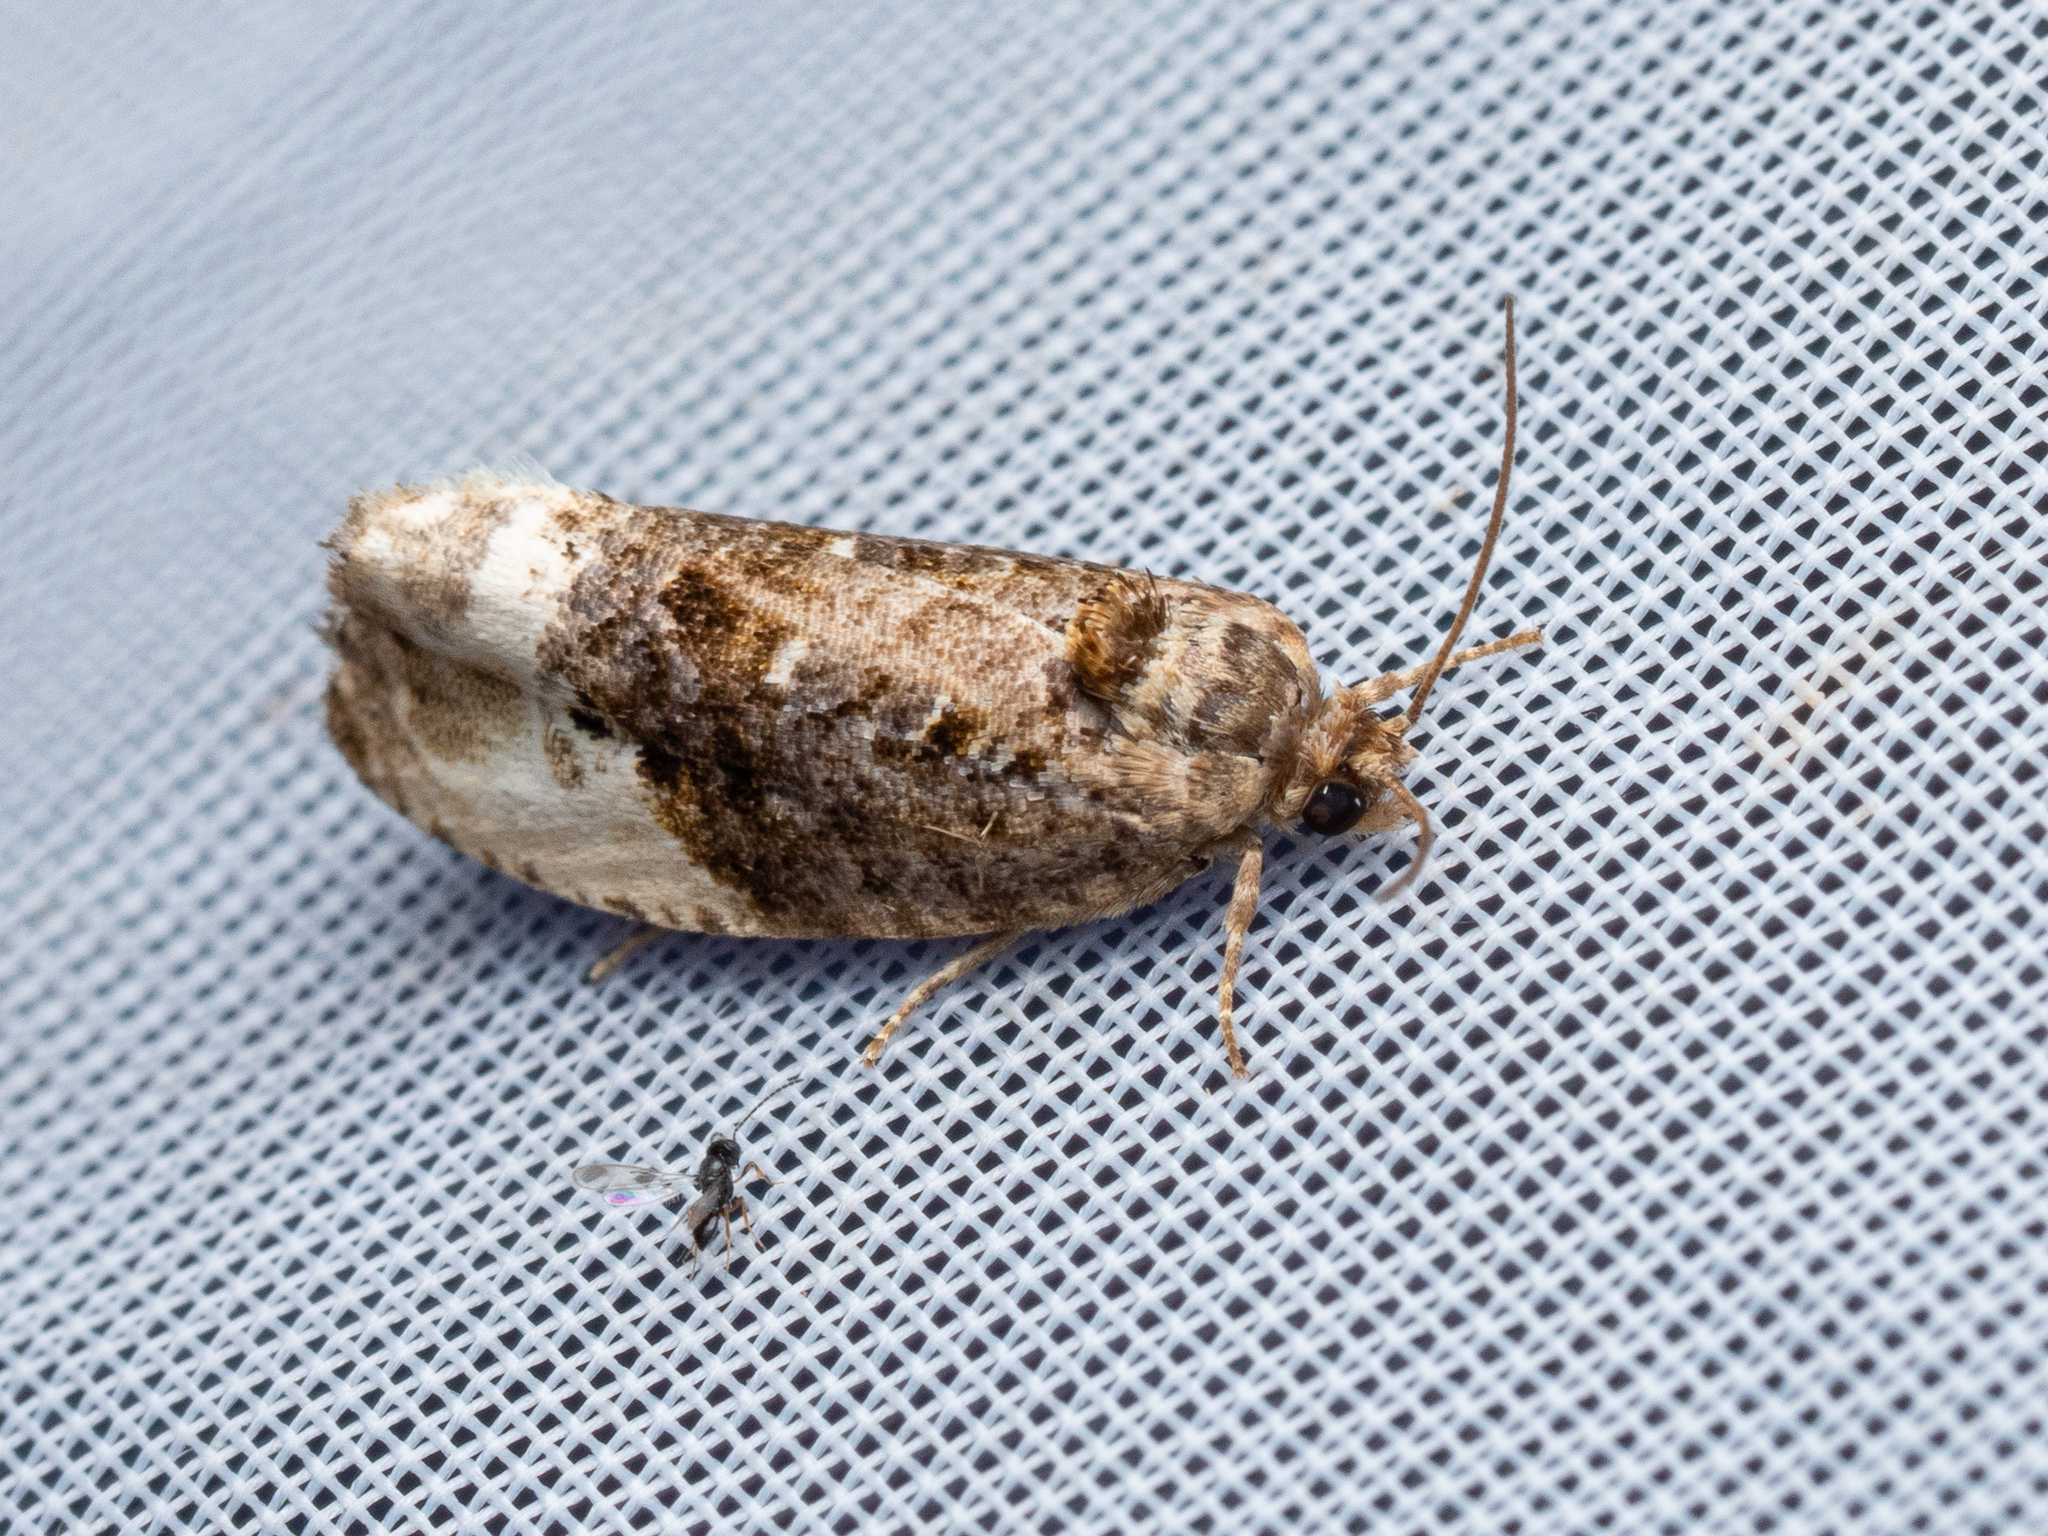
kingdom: Animalia
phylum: Arthropoda
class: Insecta
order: Lepidoptera
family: Tortricidae
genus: Hedya
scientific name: Hedya nubiferana
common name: Marbled orchard tortrix
